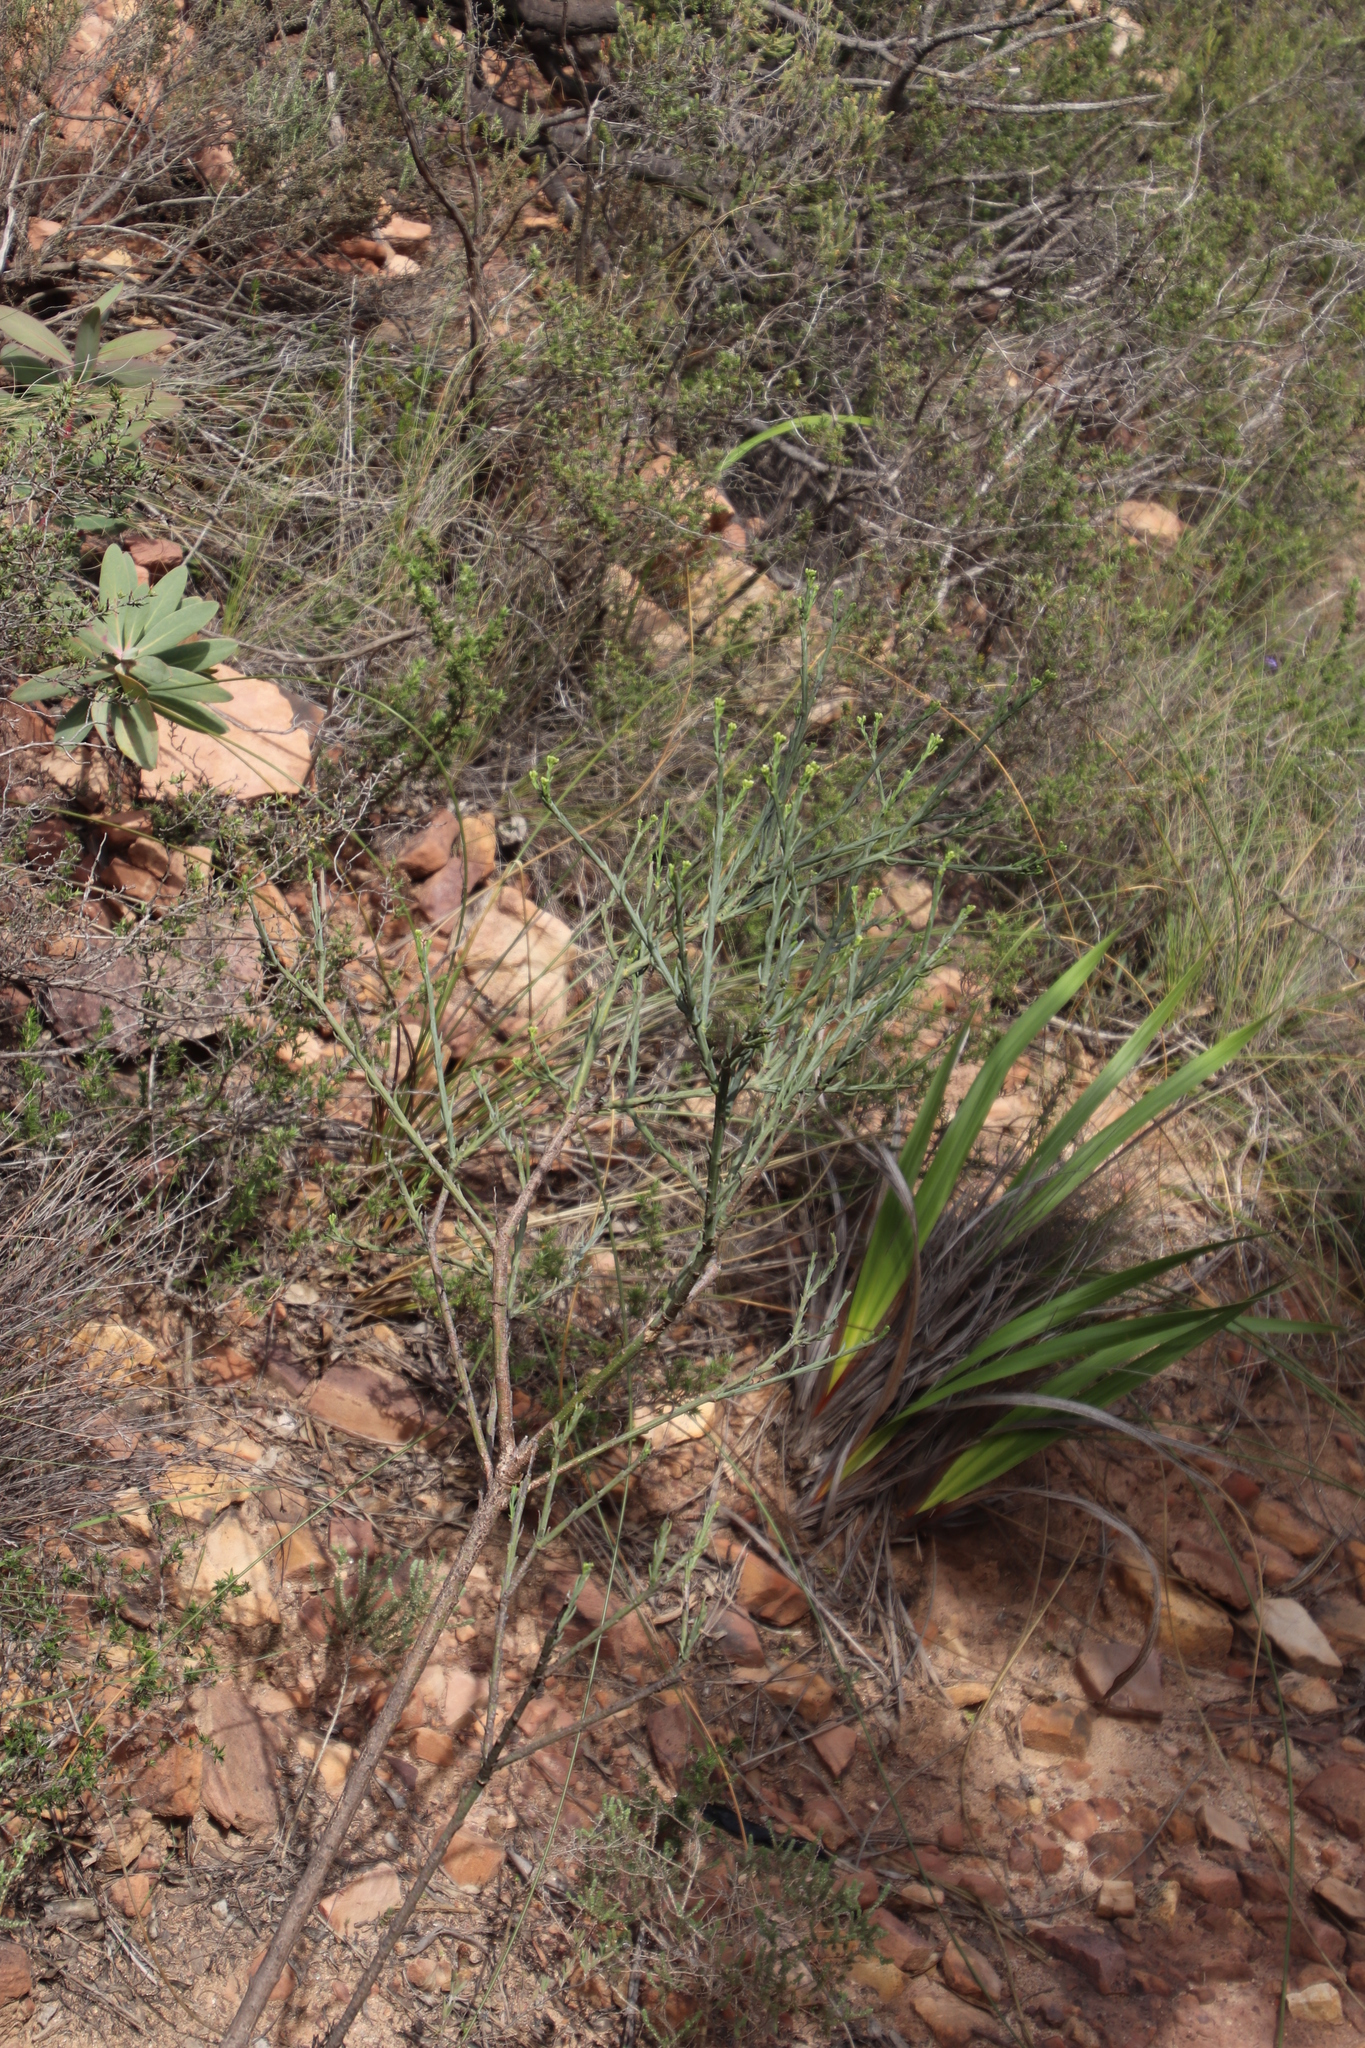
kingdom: Plantae
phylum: Tracheophyta
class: Magnoliopsida
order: Santalales
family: Thesiaceae
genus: Thesium
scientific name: Thesium strictum
